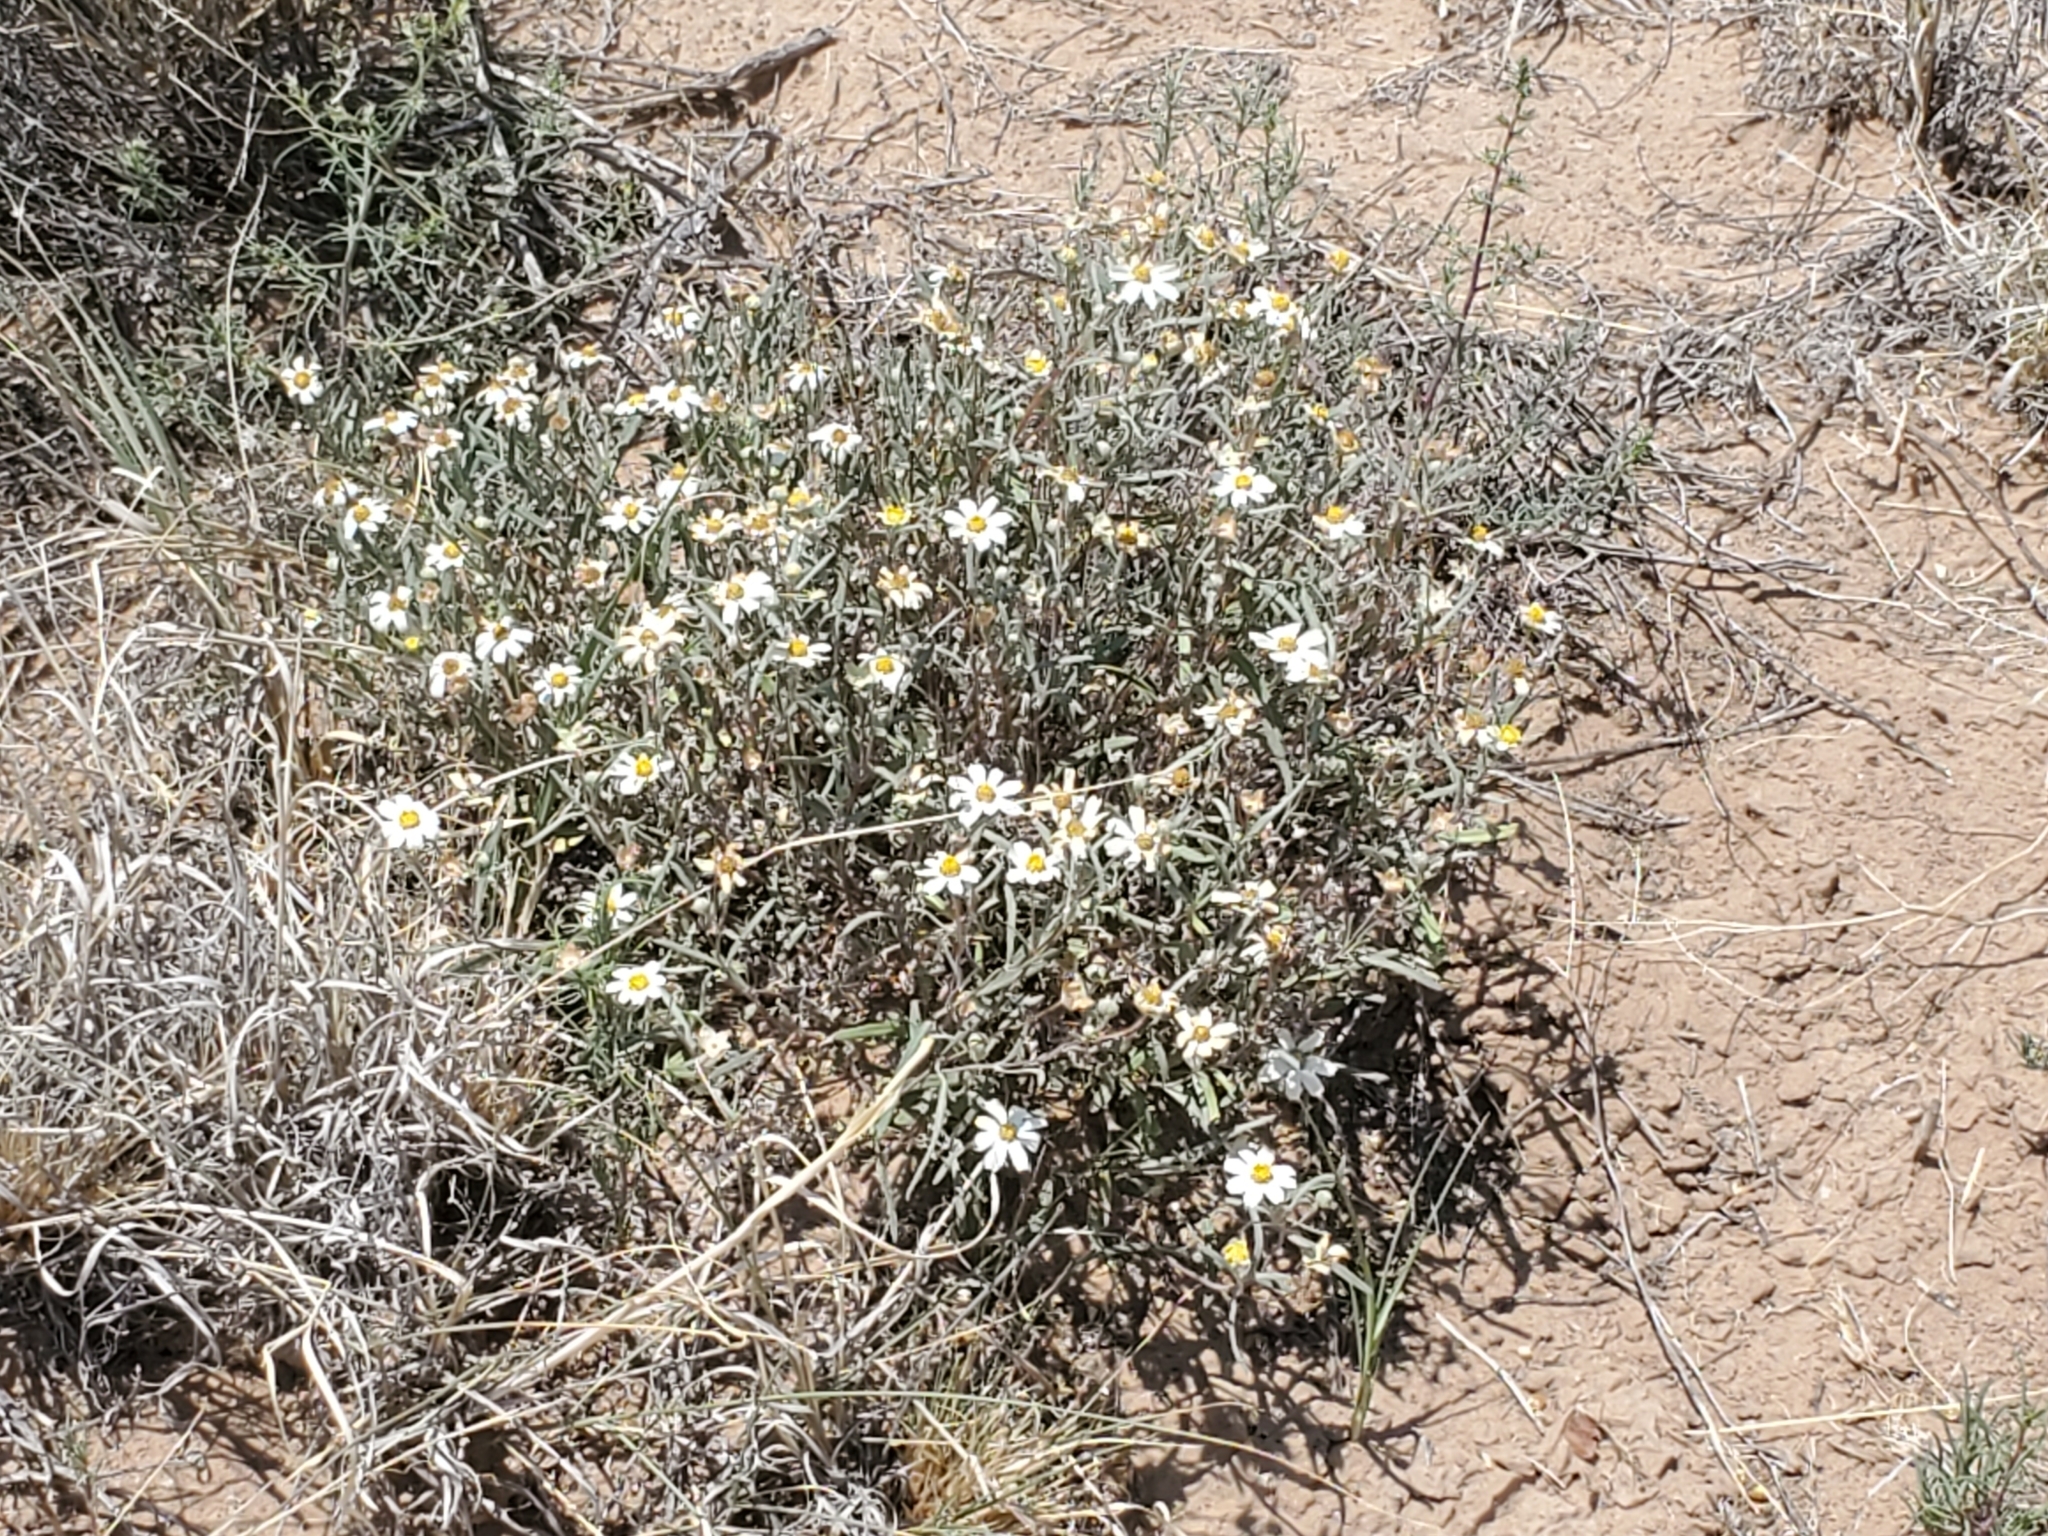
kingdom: Plantae
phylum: Tracheophyta
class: Magnoliopsida
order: Asterales
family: Asteraceae
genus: Melampodium
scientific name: Melampodium leucanthum
